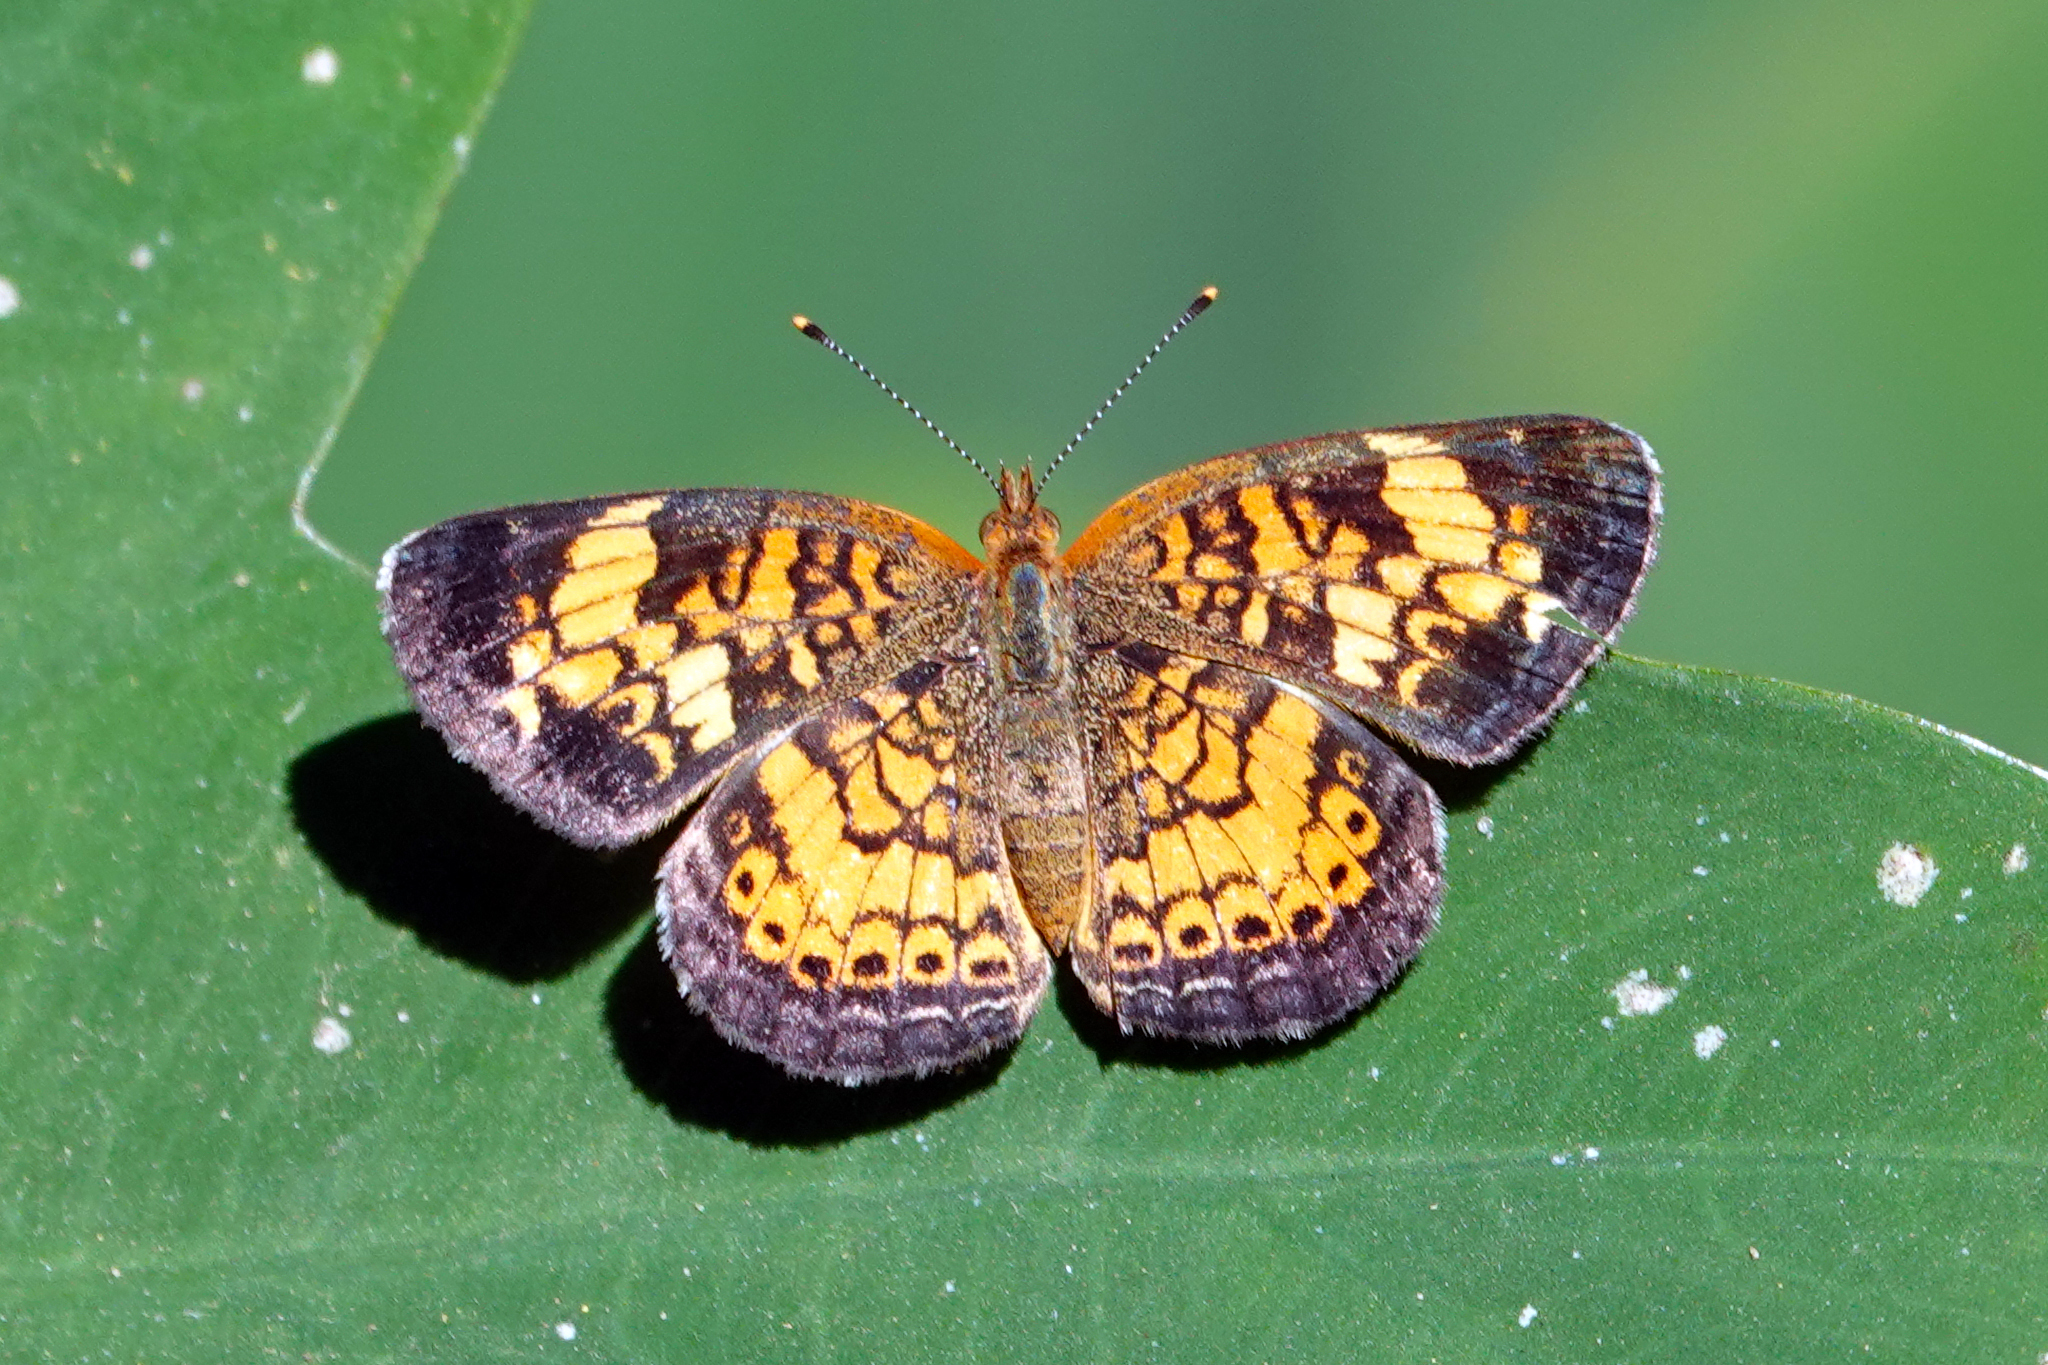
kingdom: Animalia
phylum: Arthropoda
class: Insecta
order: Lepidoptera
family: Nymphalidae
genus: Phyciodes
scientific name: Phyciodes tharos
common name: Pearl crescent
